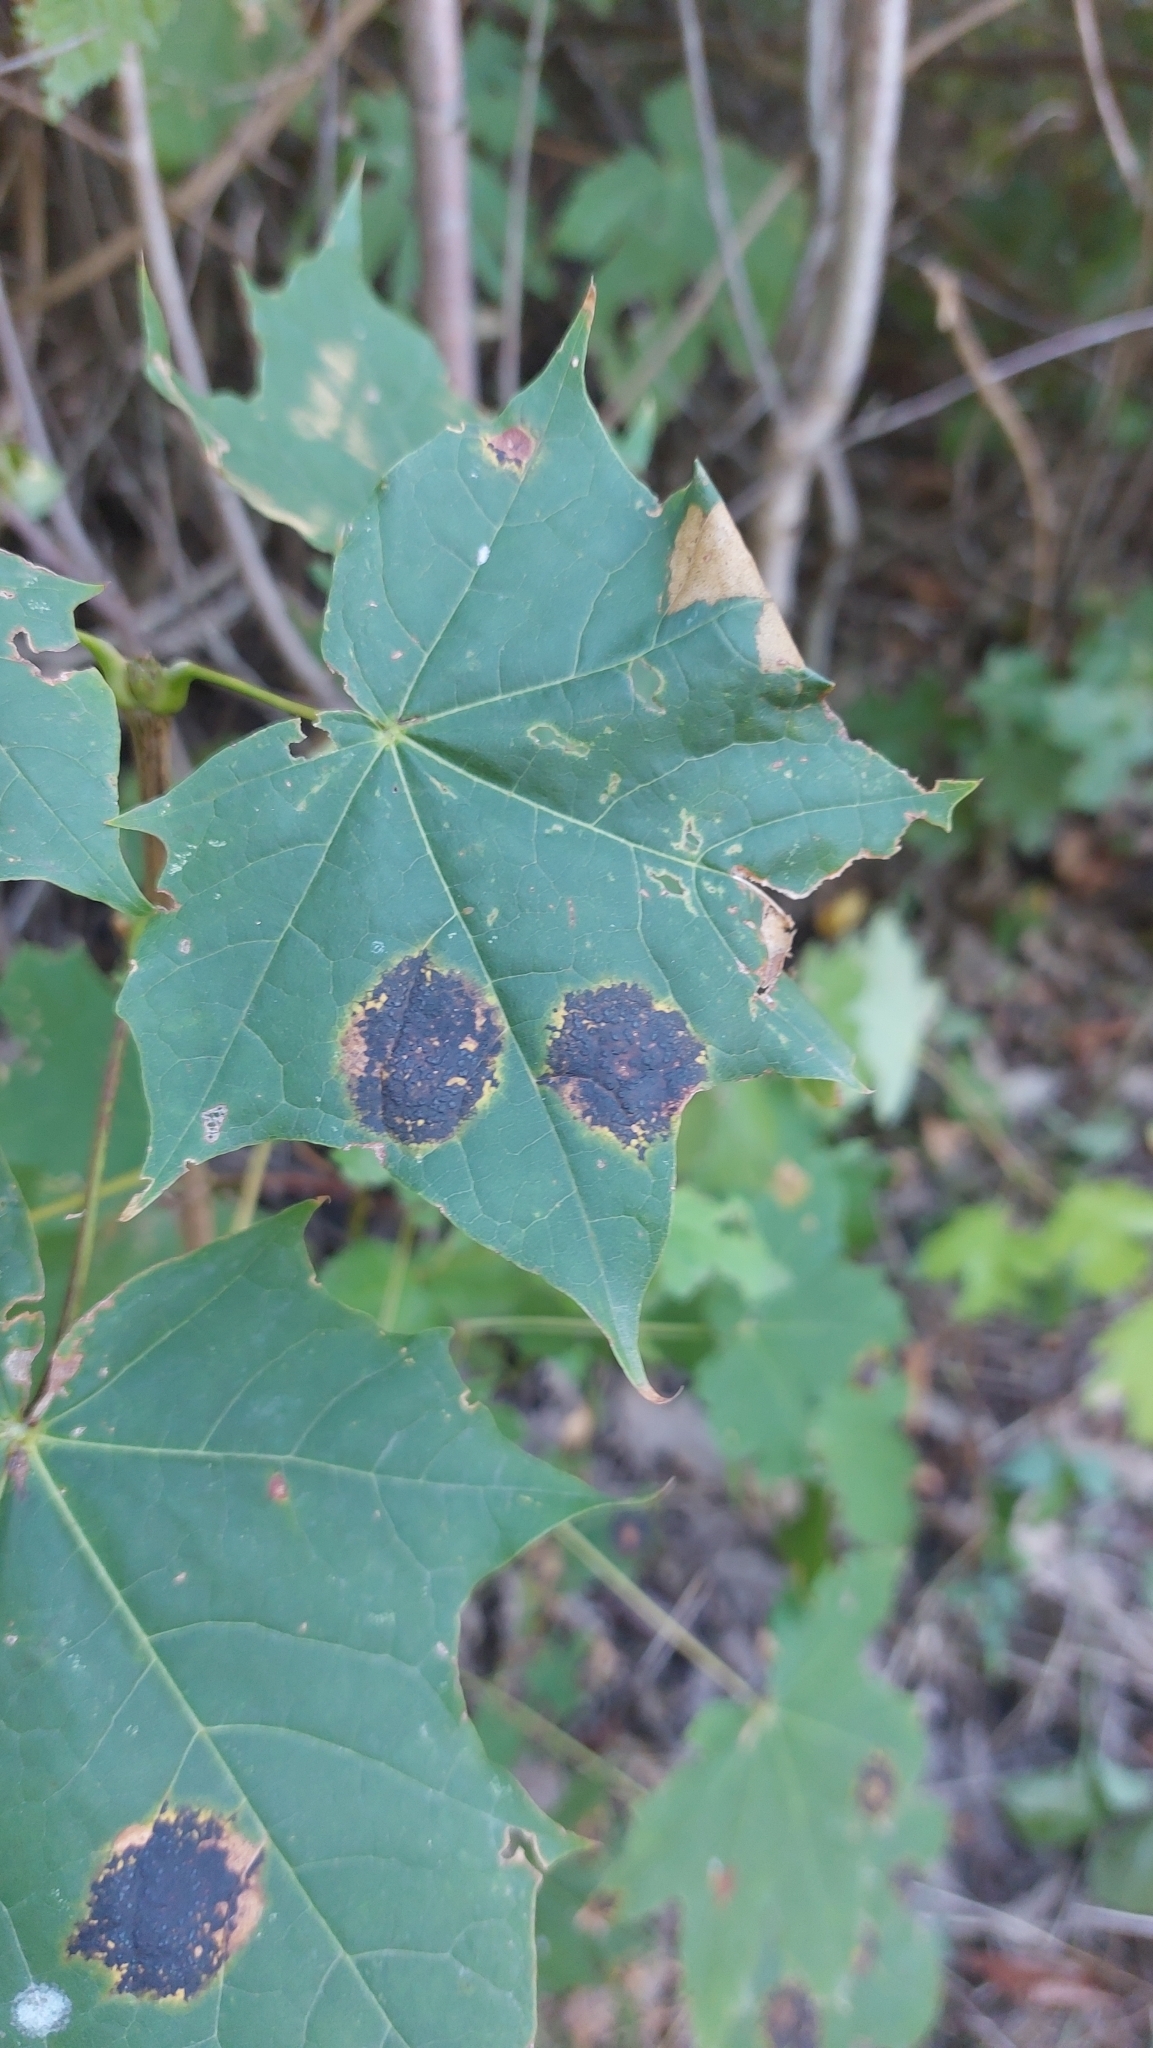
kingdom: Fungi
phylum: Ascomycota
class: Leotiomycetes
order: Rhytismatales
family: Rhytismataceae
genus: Rhytisma
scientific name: Rhytisma acerinum
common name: European tar spot
